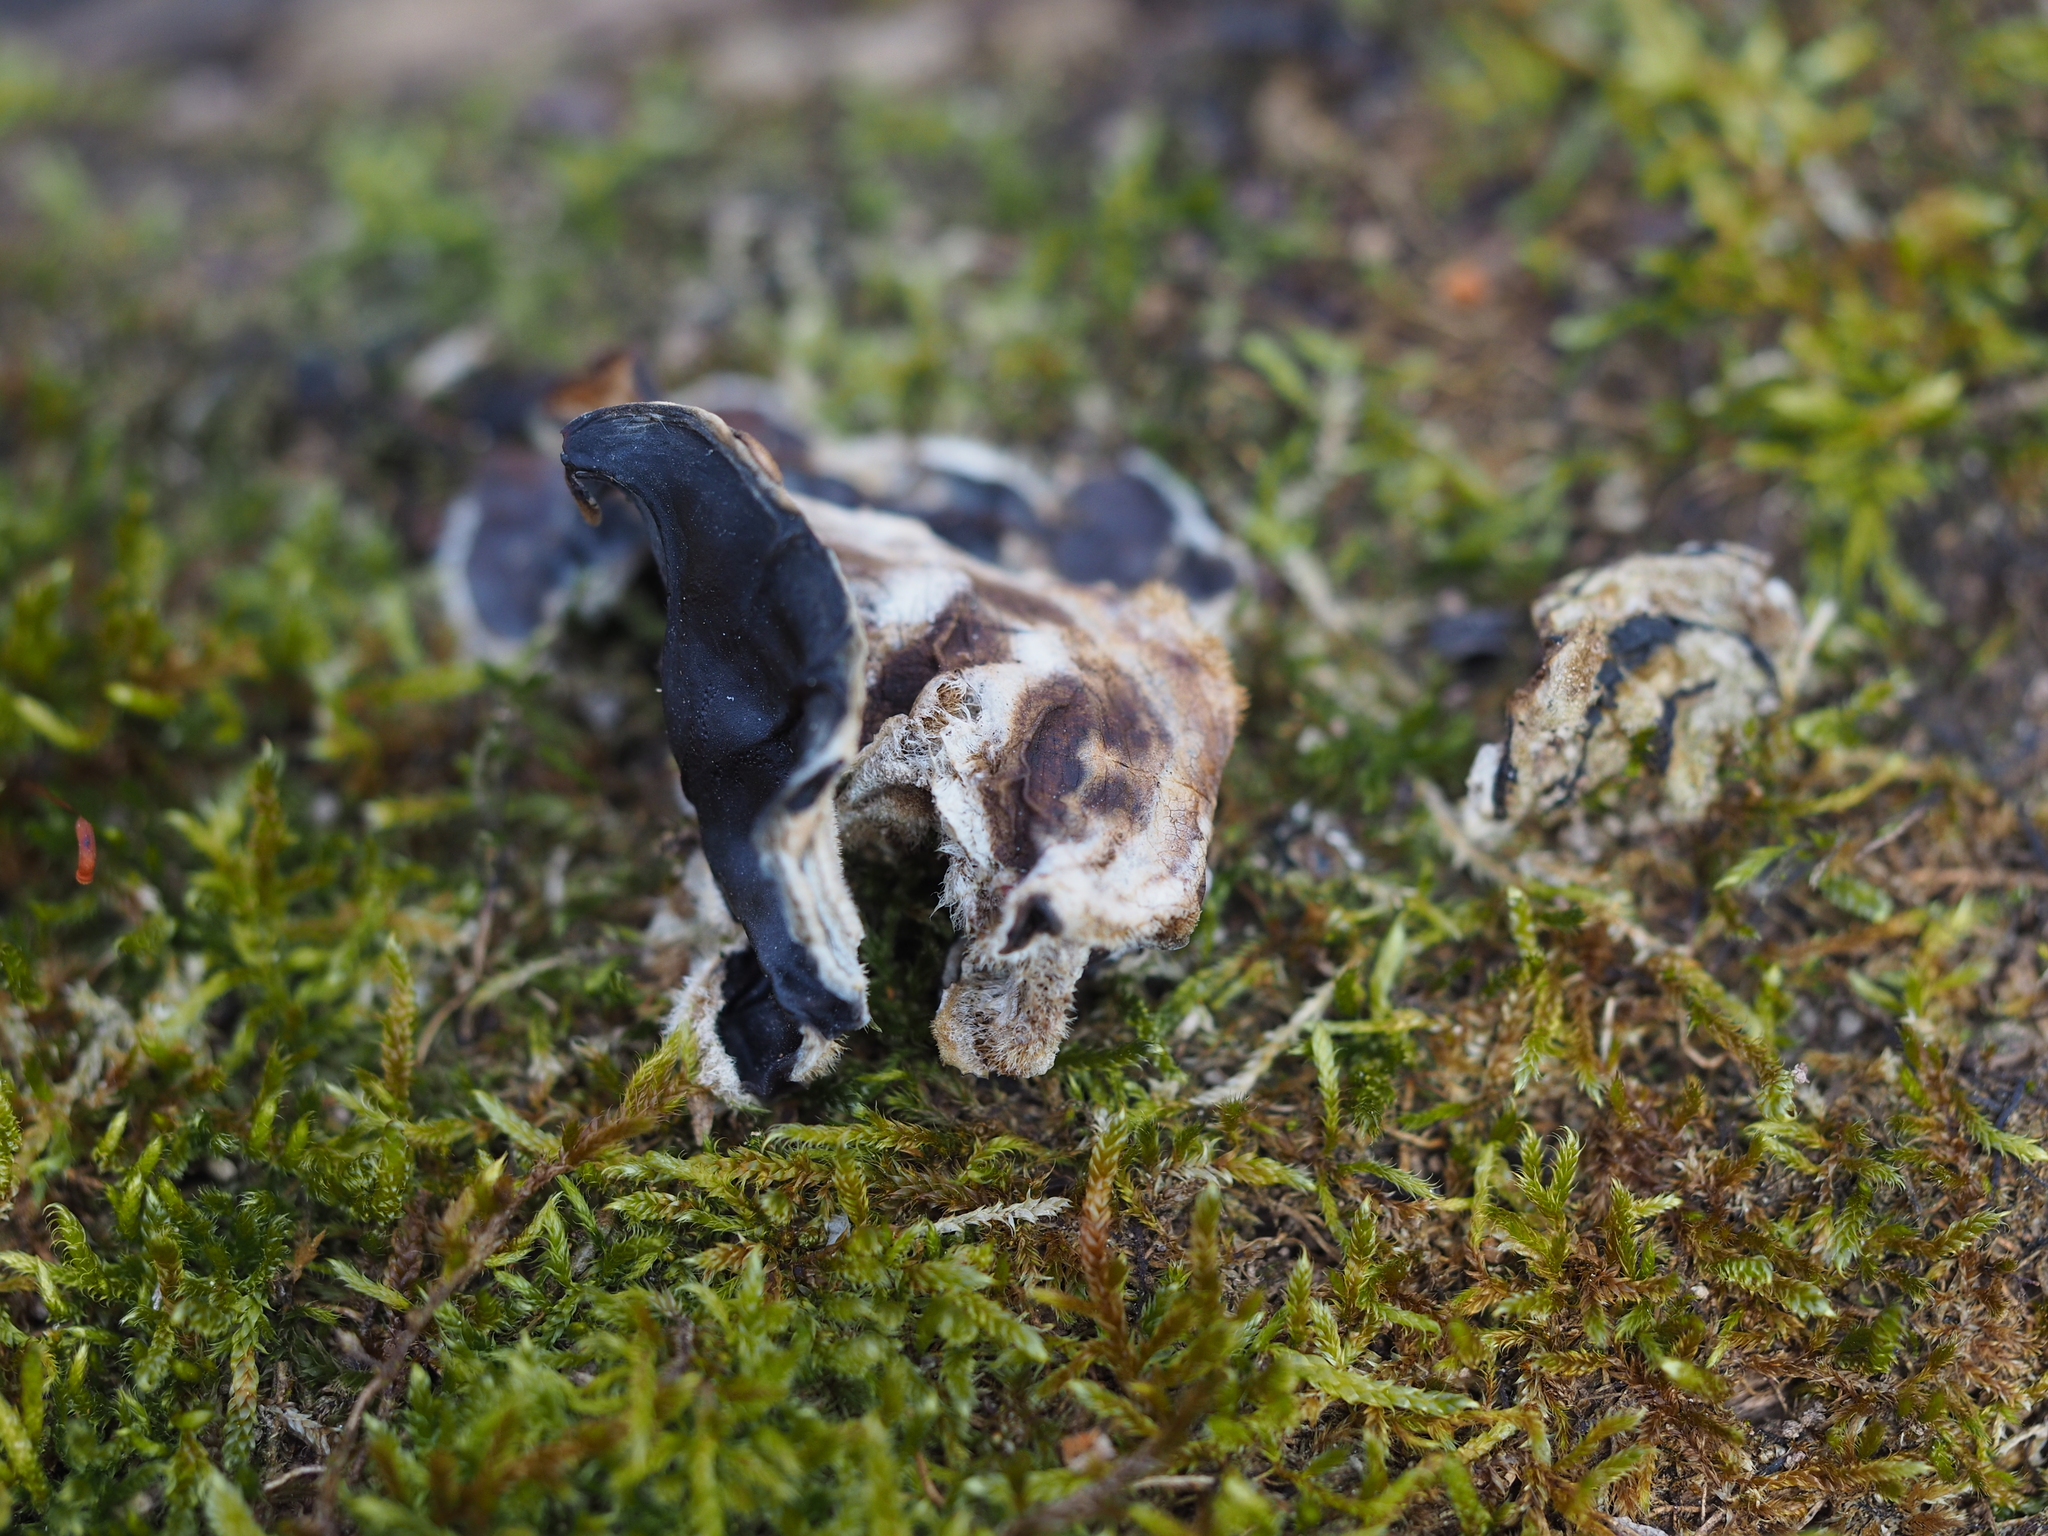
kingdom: Fungi
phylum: Basidiomycota
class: Agaricomycetes
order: Auriculariales
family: Auriculariaceae
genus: Auricularia
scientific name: Auricularia mesenterica
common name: Tripe fungus
